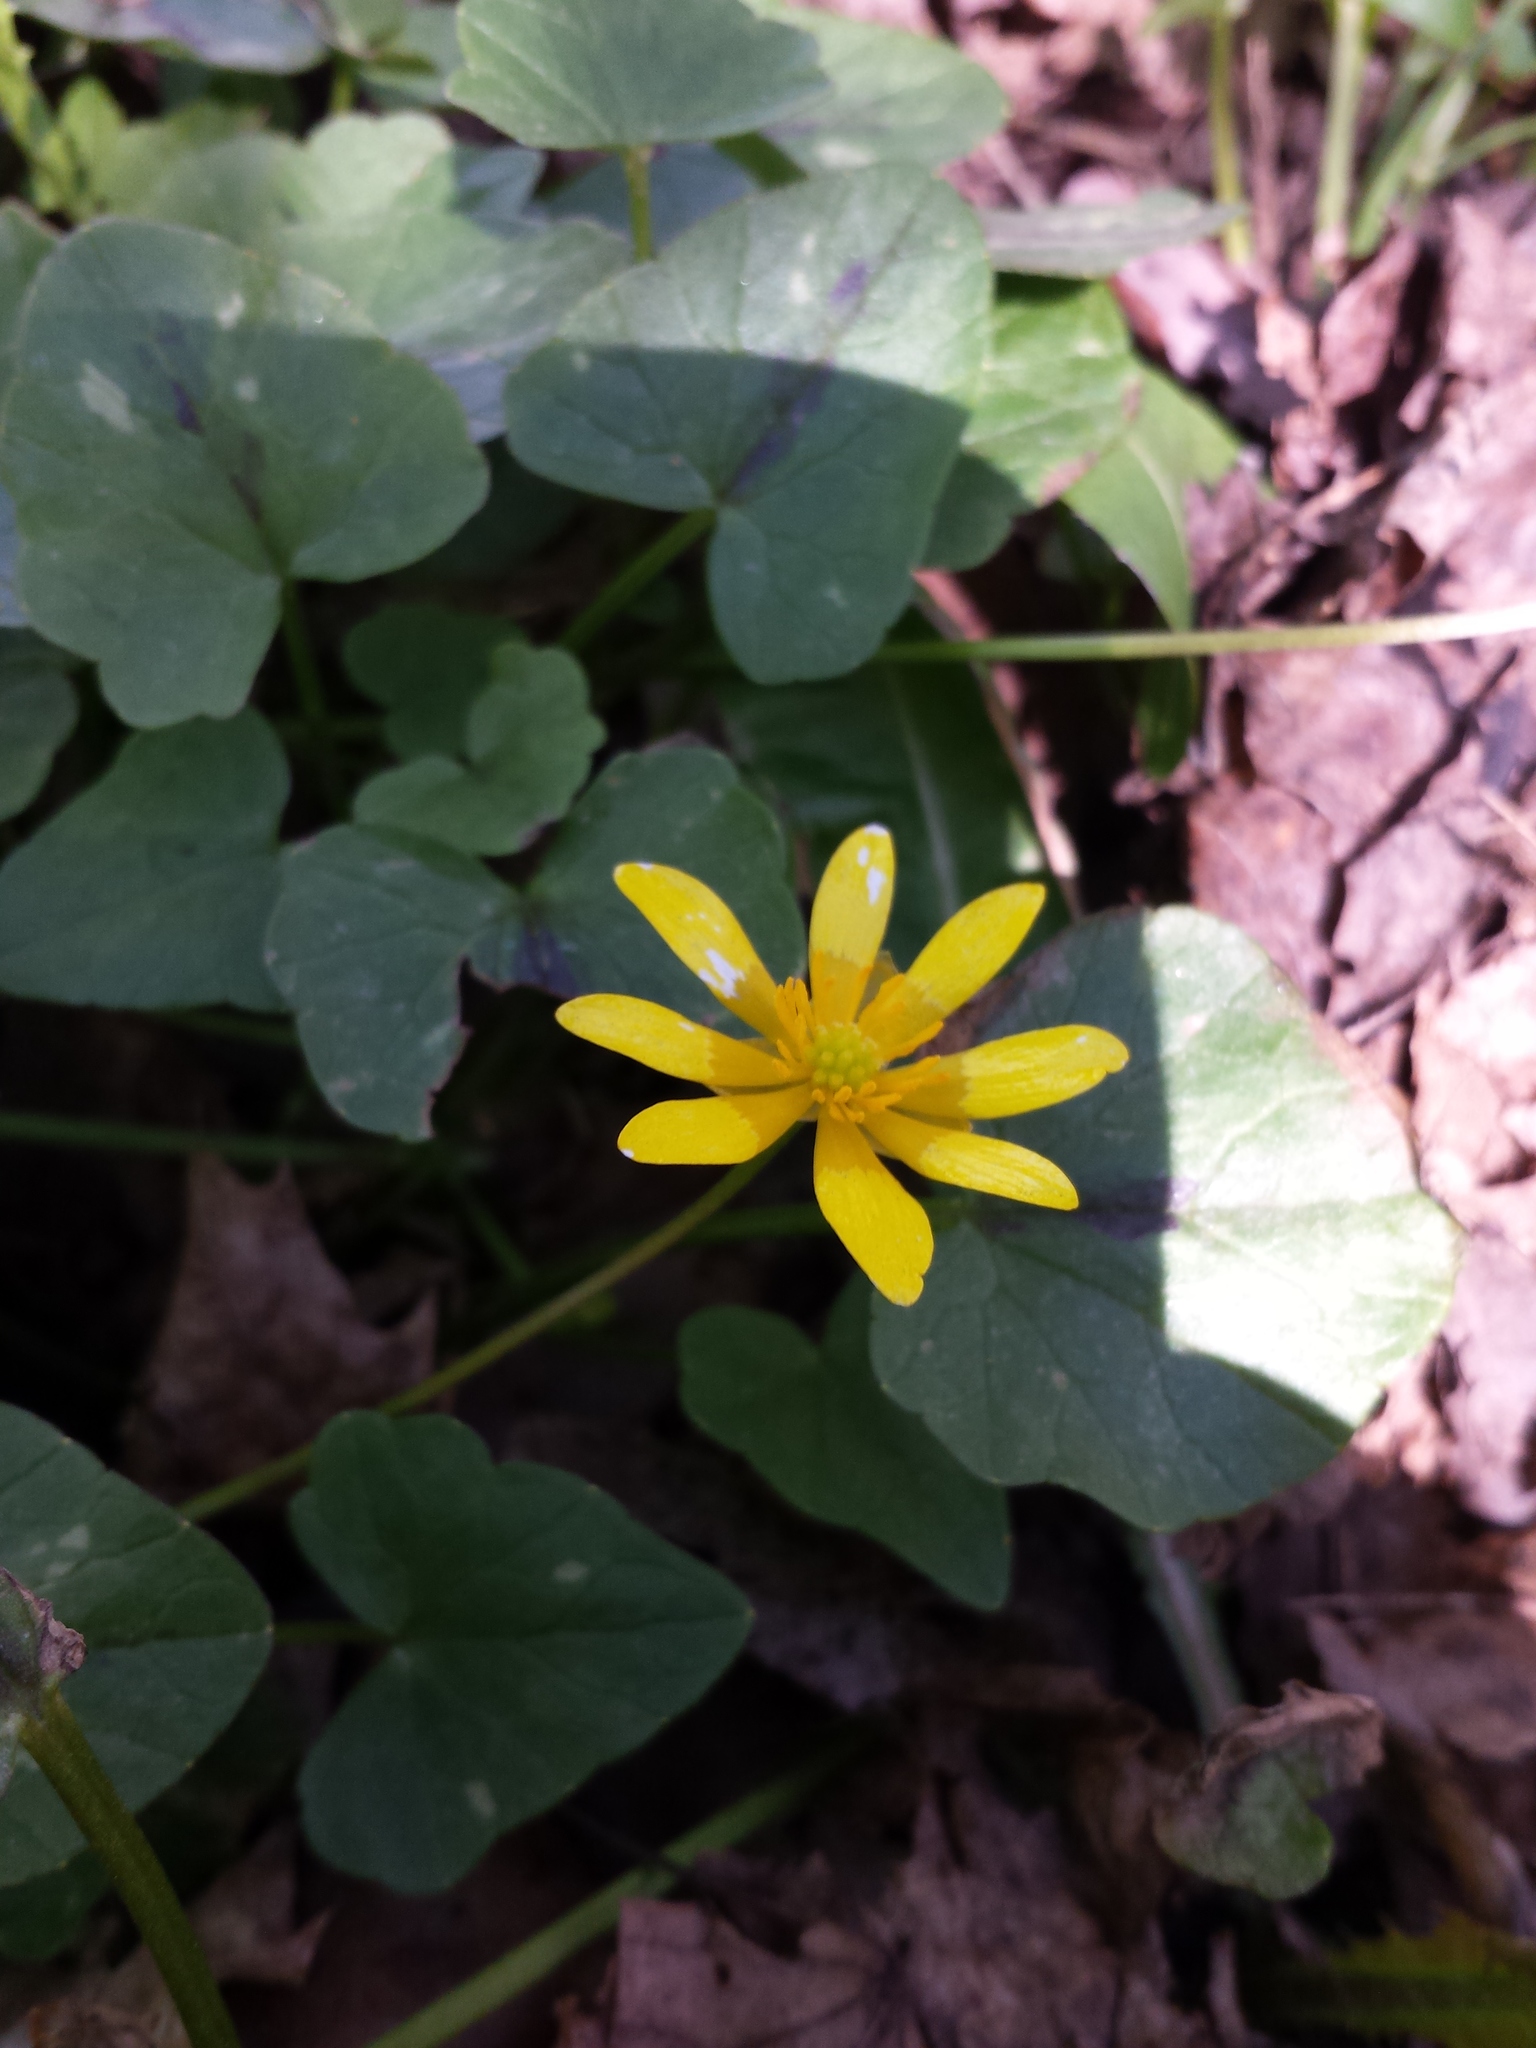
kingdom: Plantae
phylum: Tracheophyta
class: Magnoliopsida
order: Ranunculales
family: Ranunculaceae
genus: Ficaria
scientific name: Ficaria verna
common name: Lesser celandine
